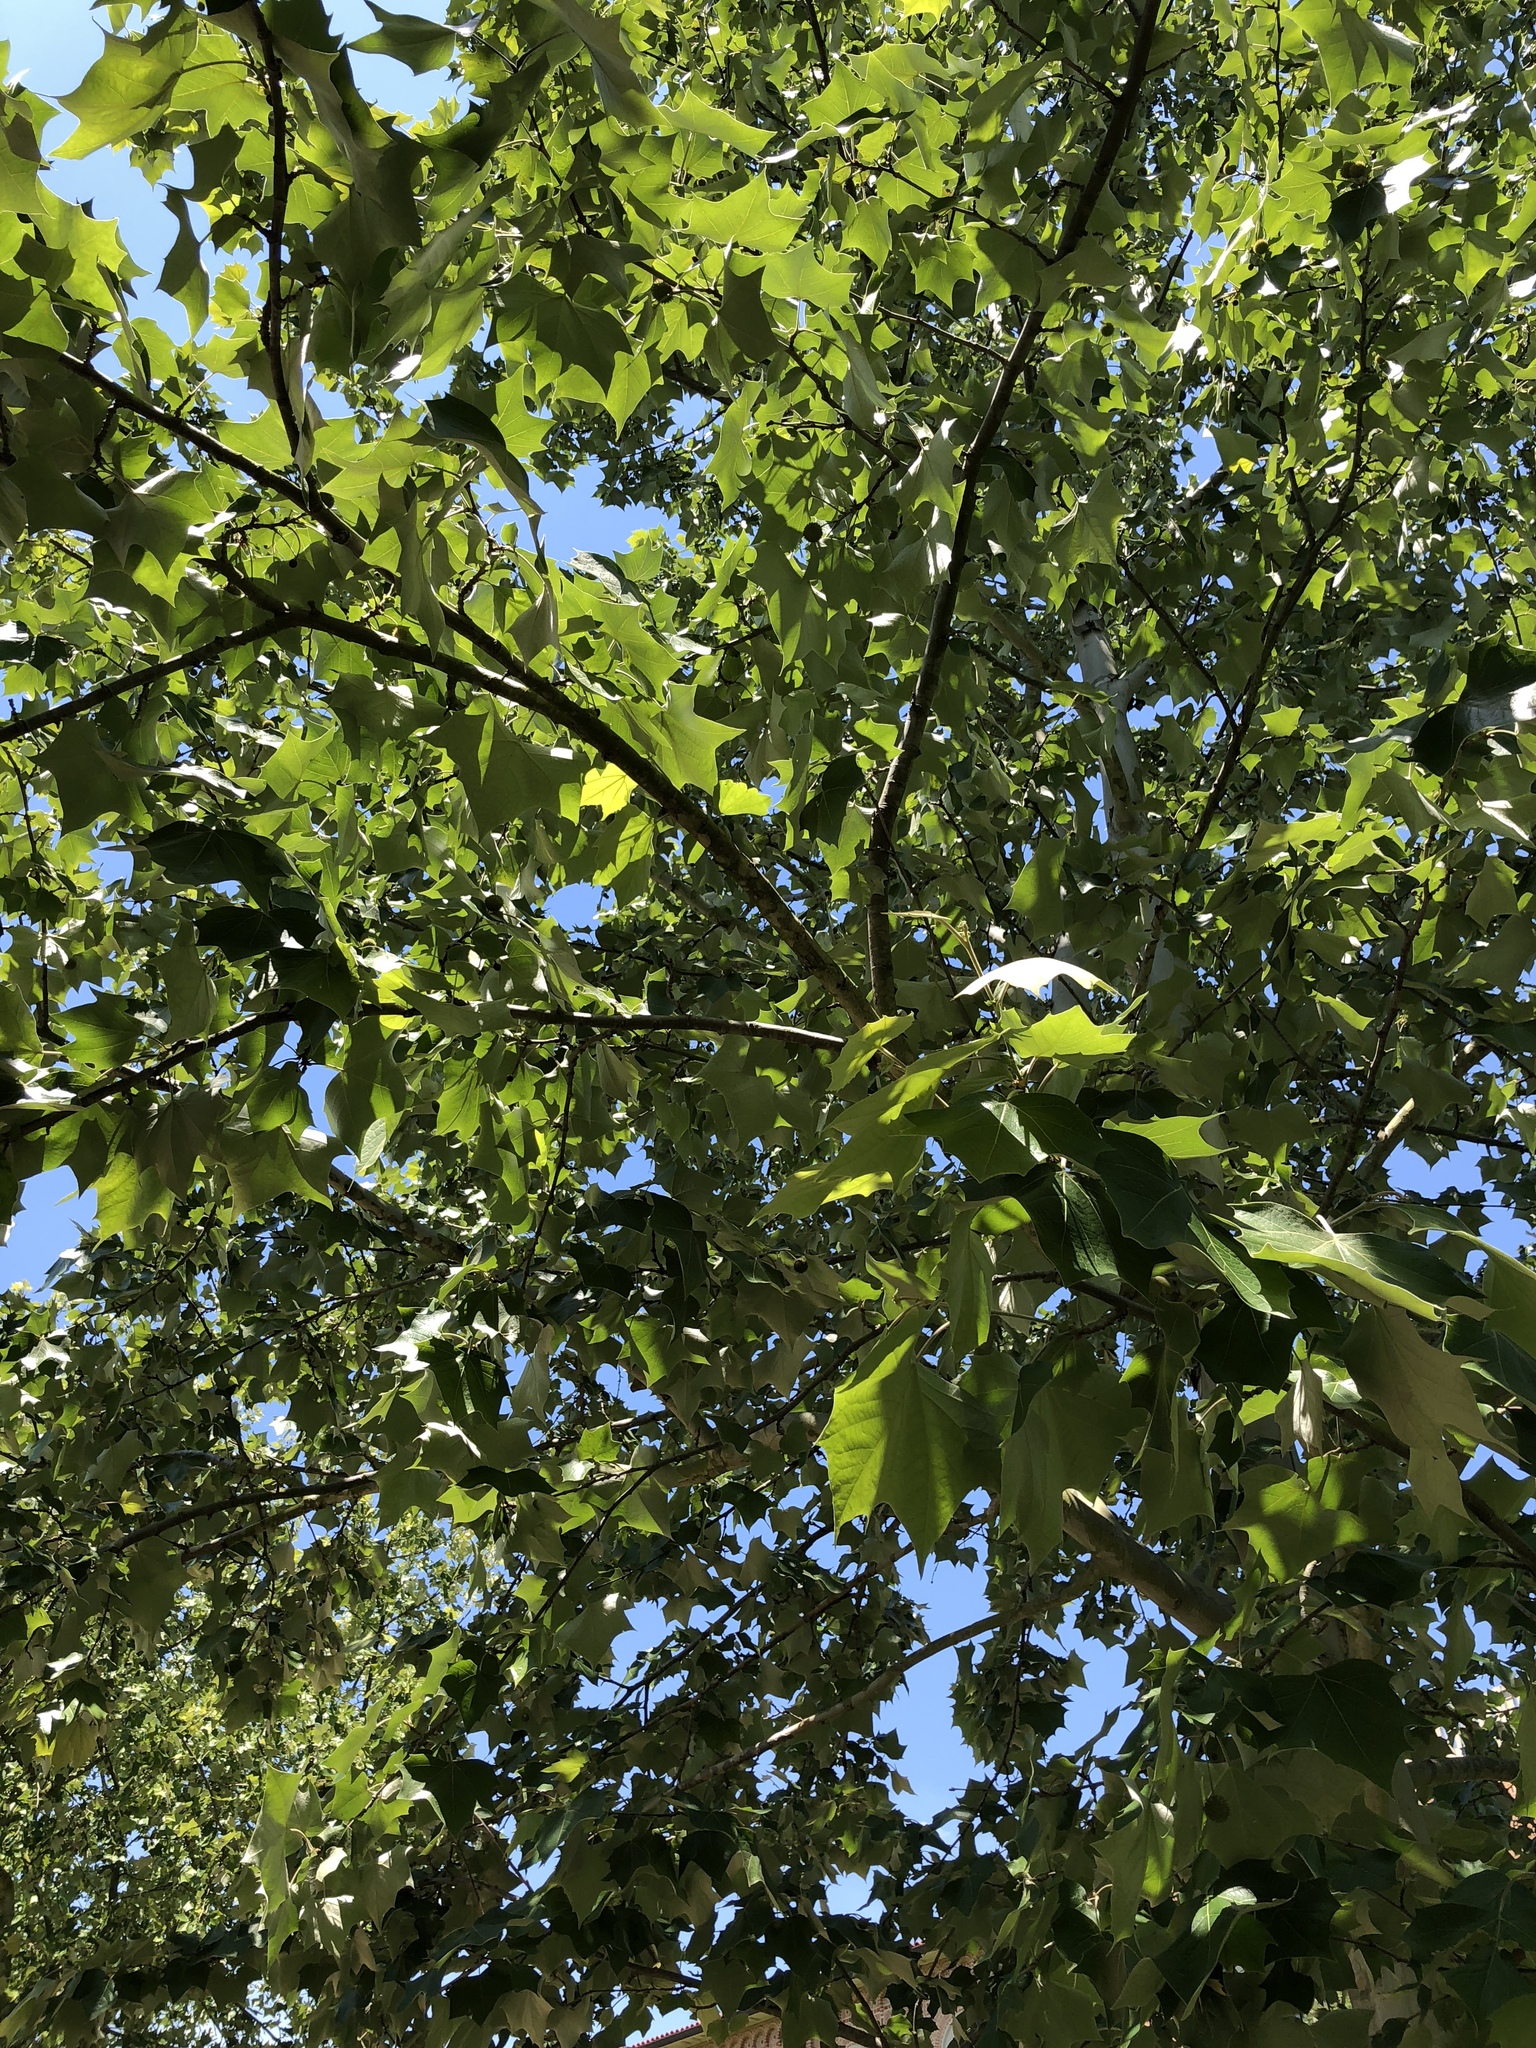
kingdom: Plantae
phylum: Tracheophyta
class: Magnoliopsida
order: Proteales
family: Platanaceae
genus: Platanus
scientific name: Platanus occidentalis
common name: American sycamore
